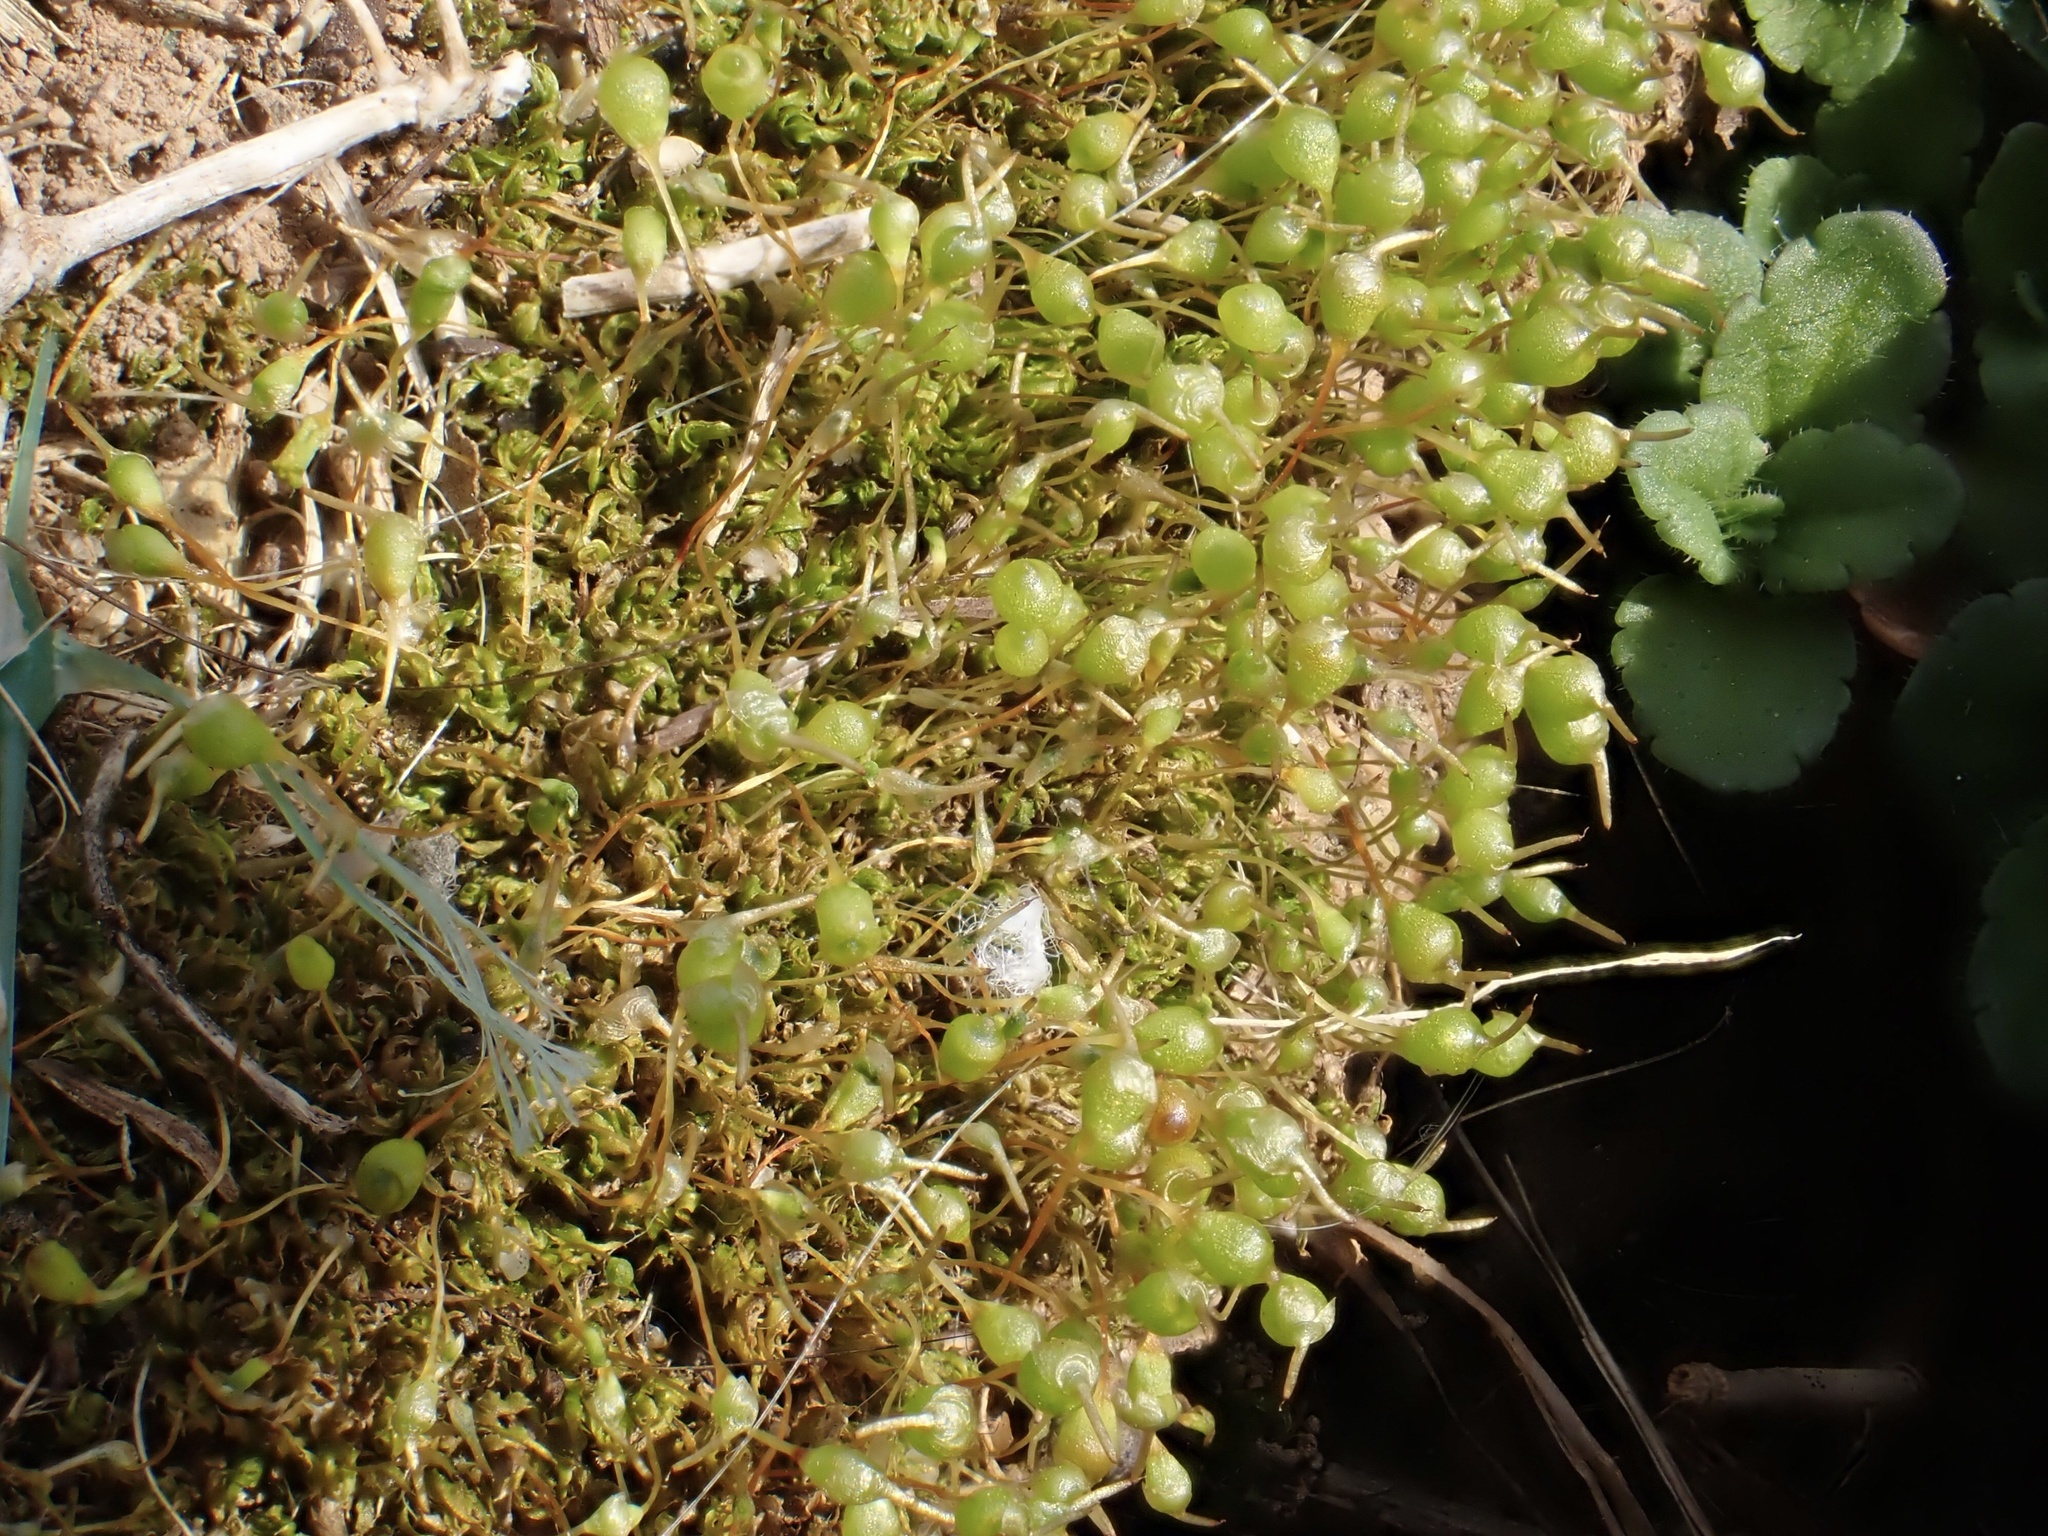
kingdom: Plantae
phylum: Bryophyta
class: Bryopsida
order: Funariales
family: Funariaceae
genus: Physcomitrium
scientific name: Physcomitrium pyriforme
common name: Common bladder-moss
